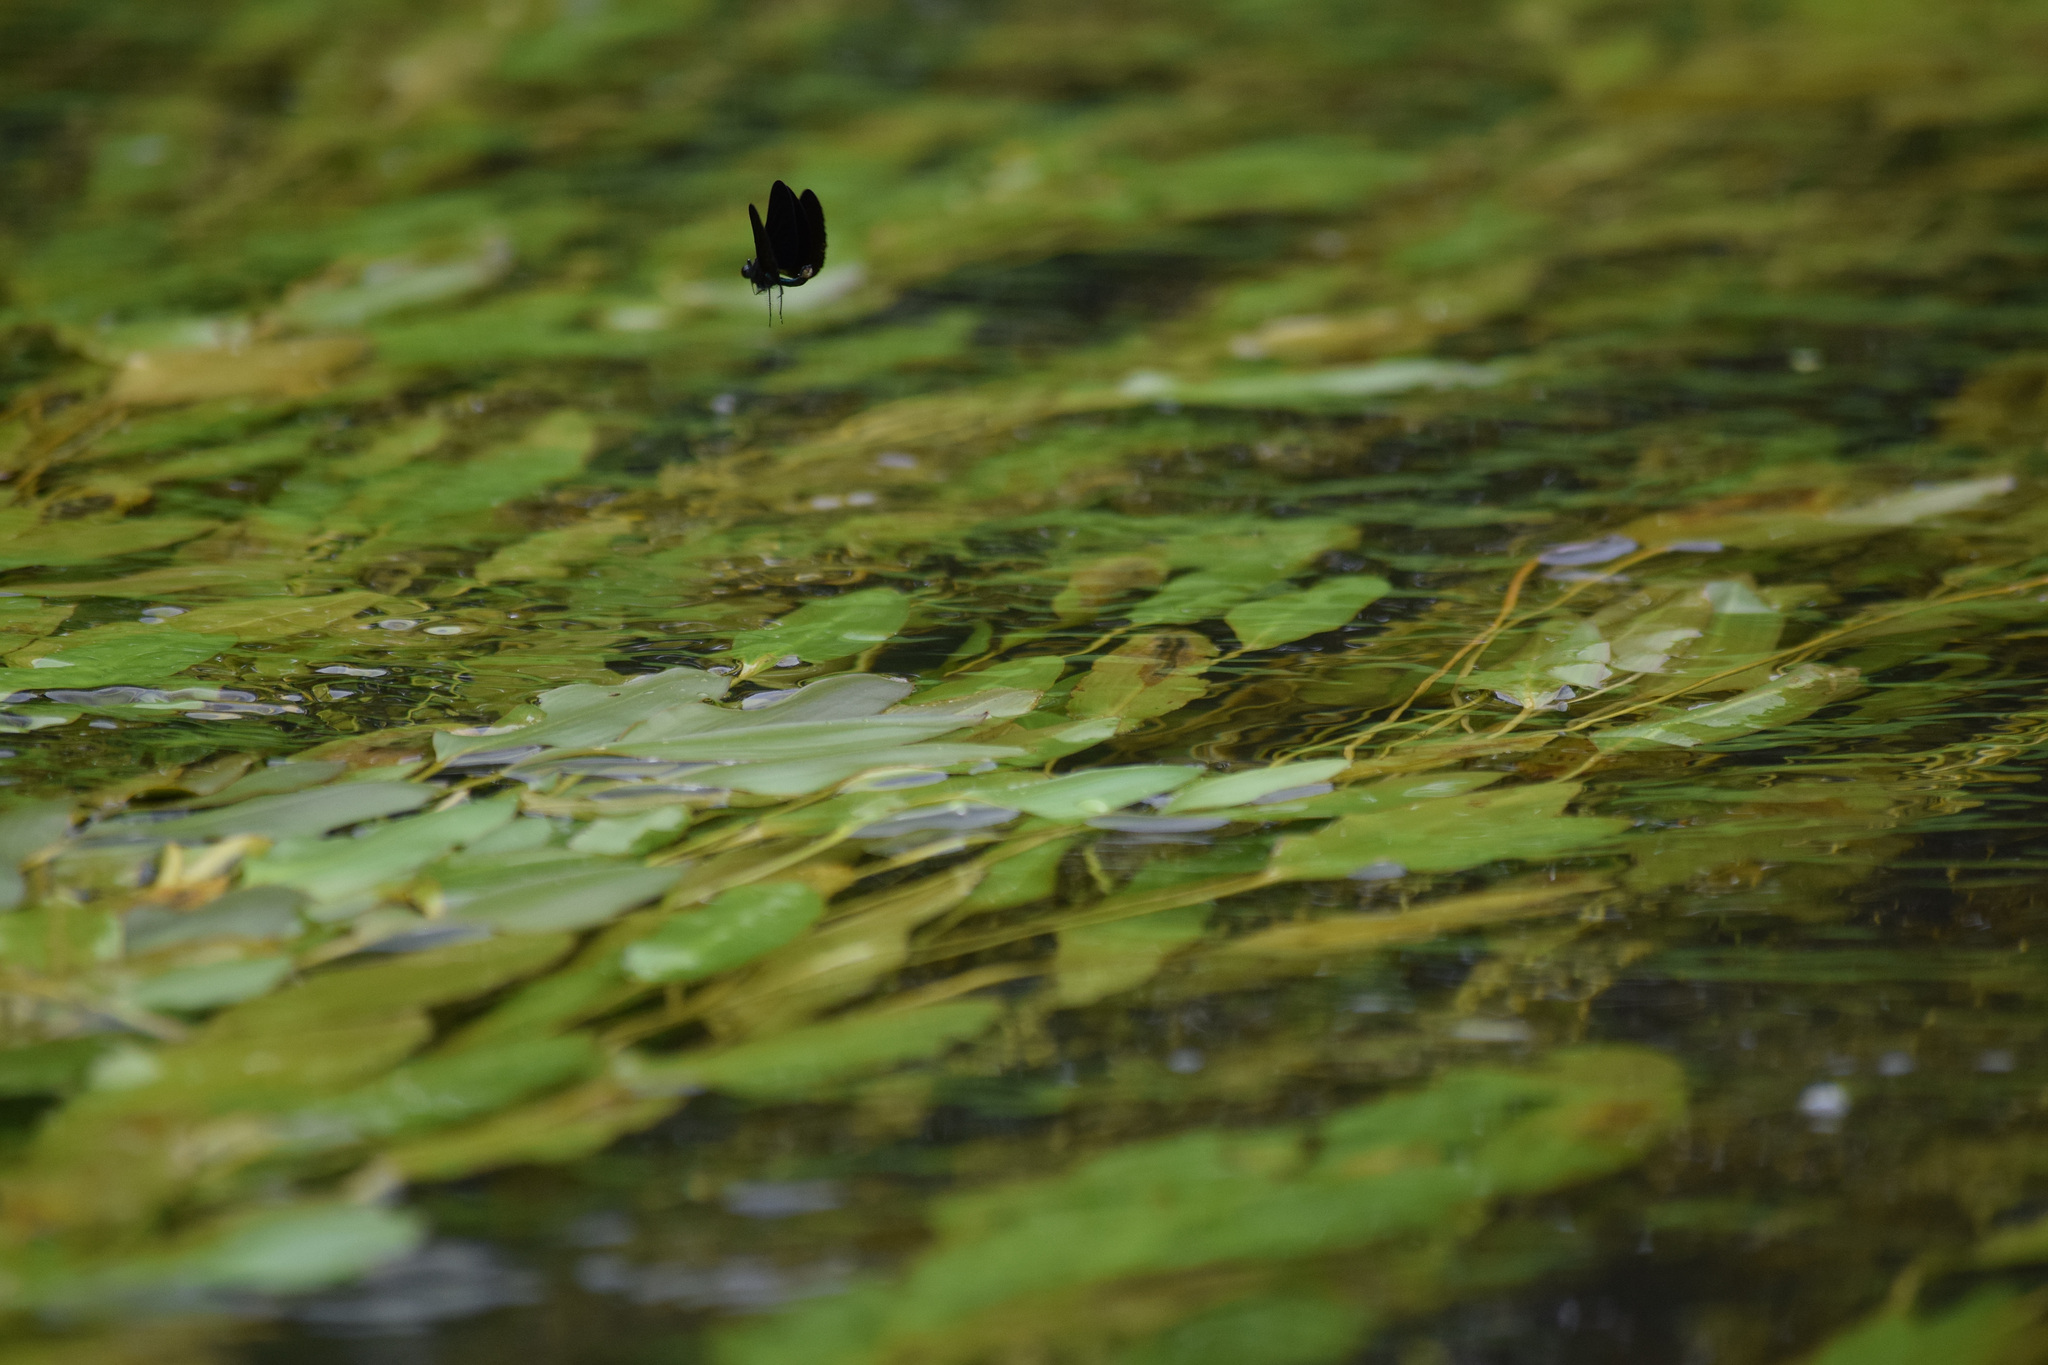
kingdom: Animalia
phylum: Arthropoda
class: Insecta
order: Odonata
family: Calopterygidae
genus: Calopteryx
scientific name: Calopteryx maculata
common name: Ebony jewelwing
